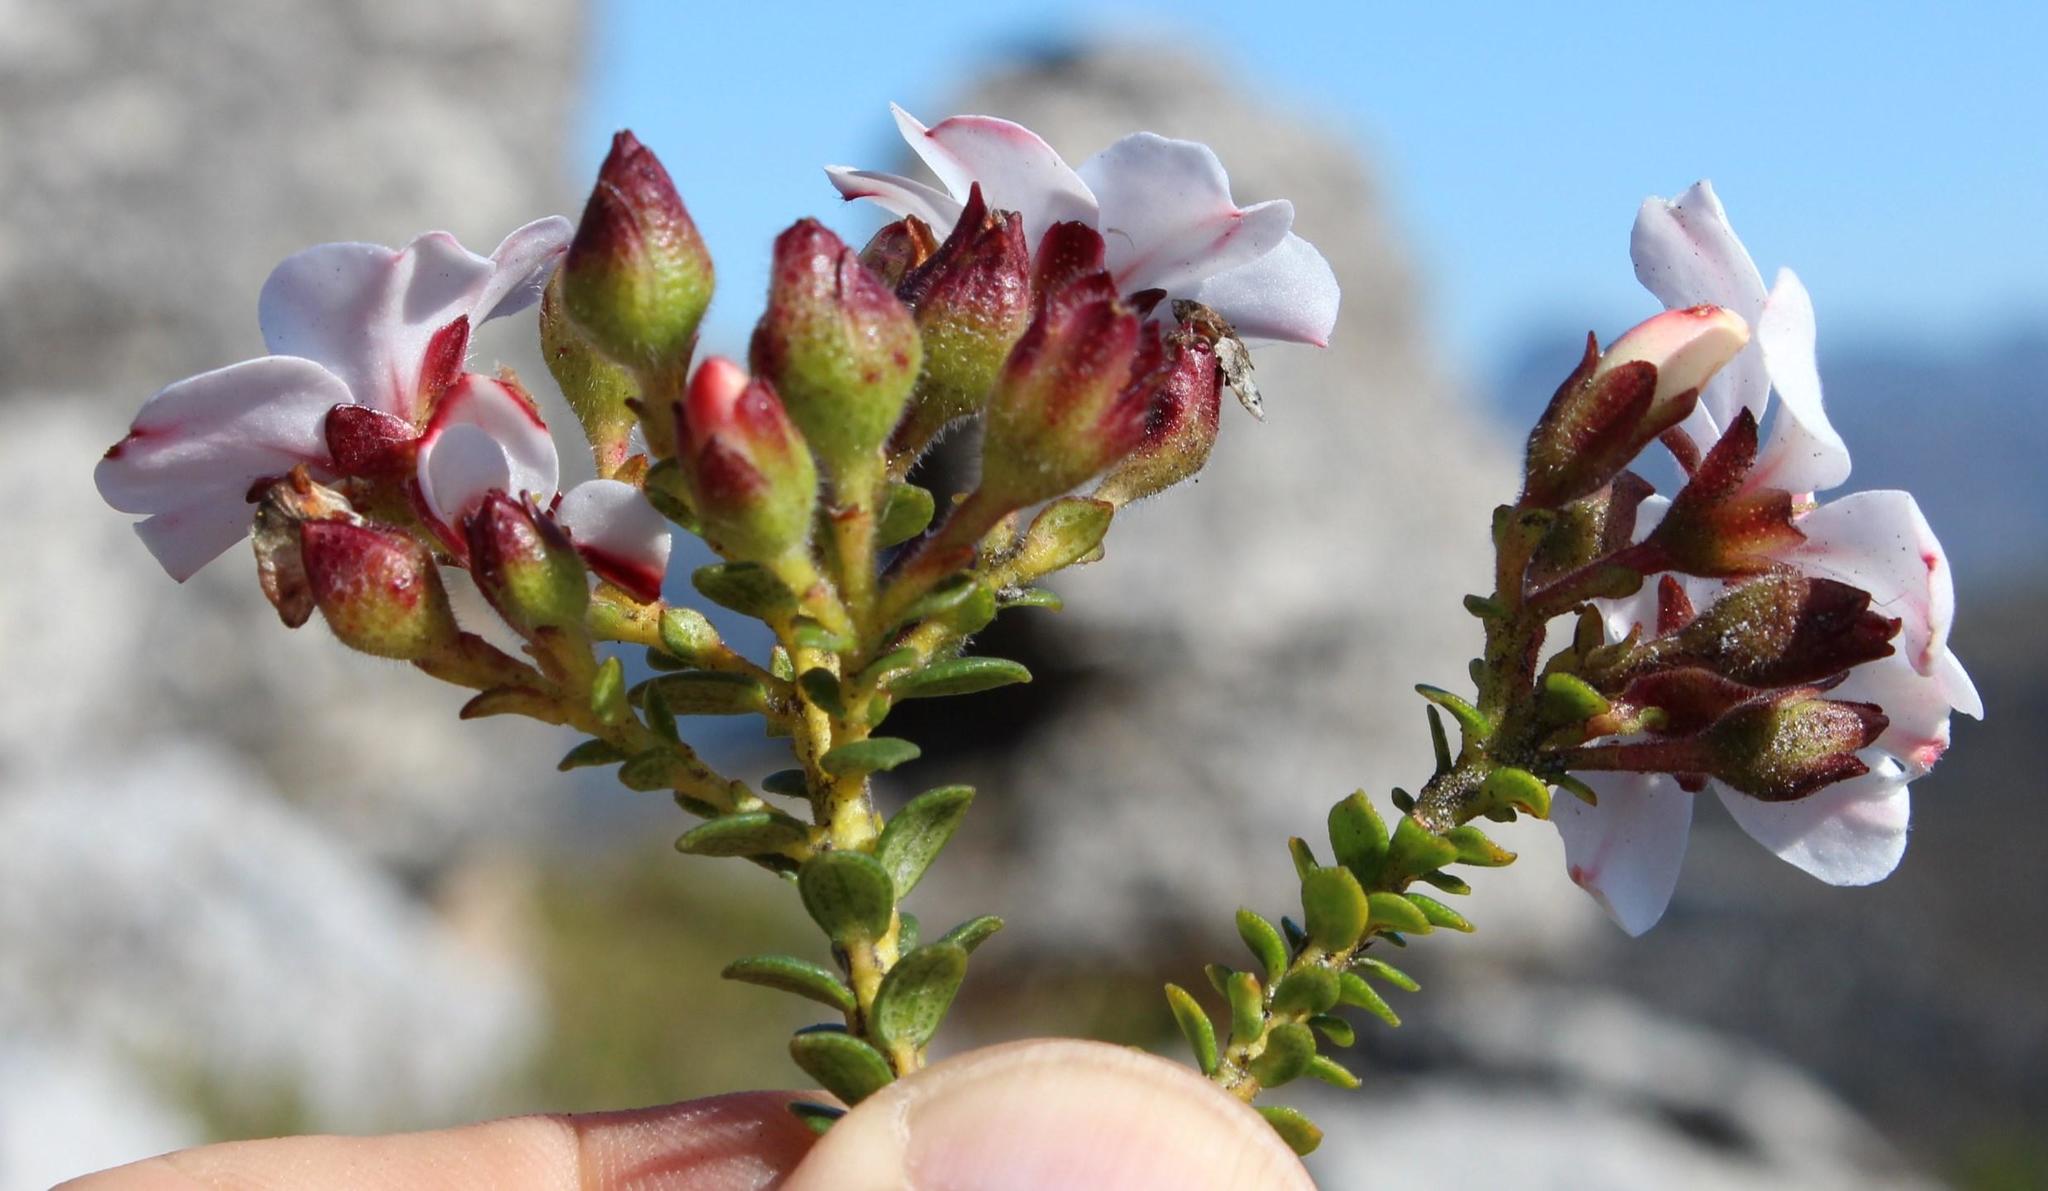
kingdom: Plantae
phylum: Tracheophyta
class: Magnoliopsida
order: Sapindales
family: Rutaceae
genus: Adenandra
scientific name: Adenandra villosa
